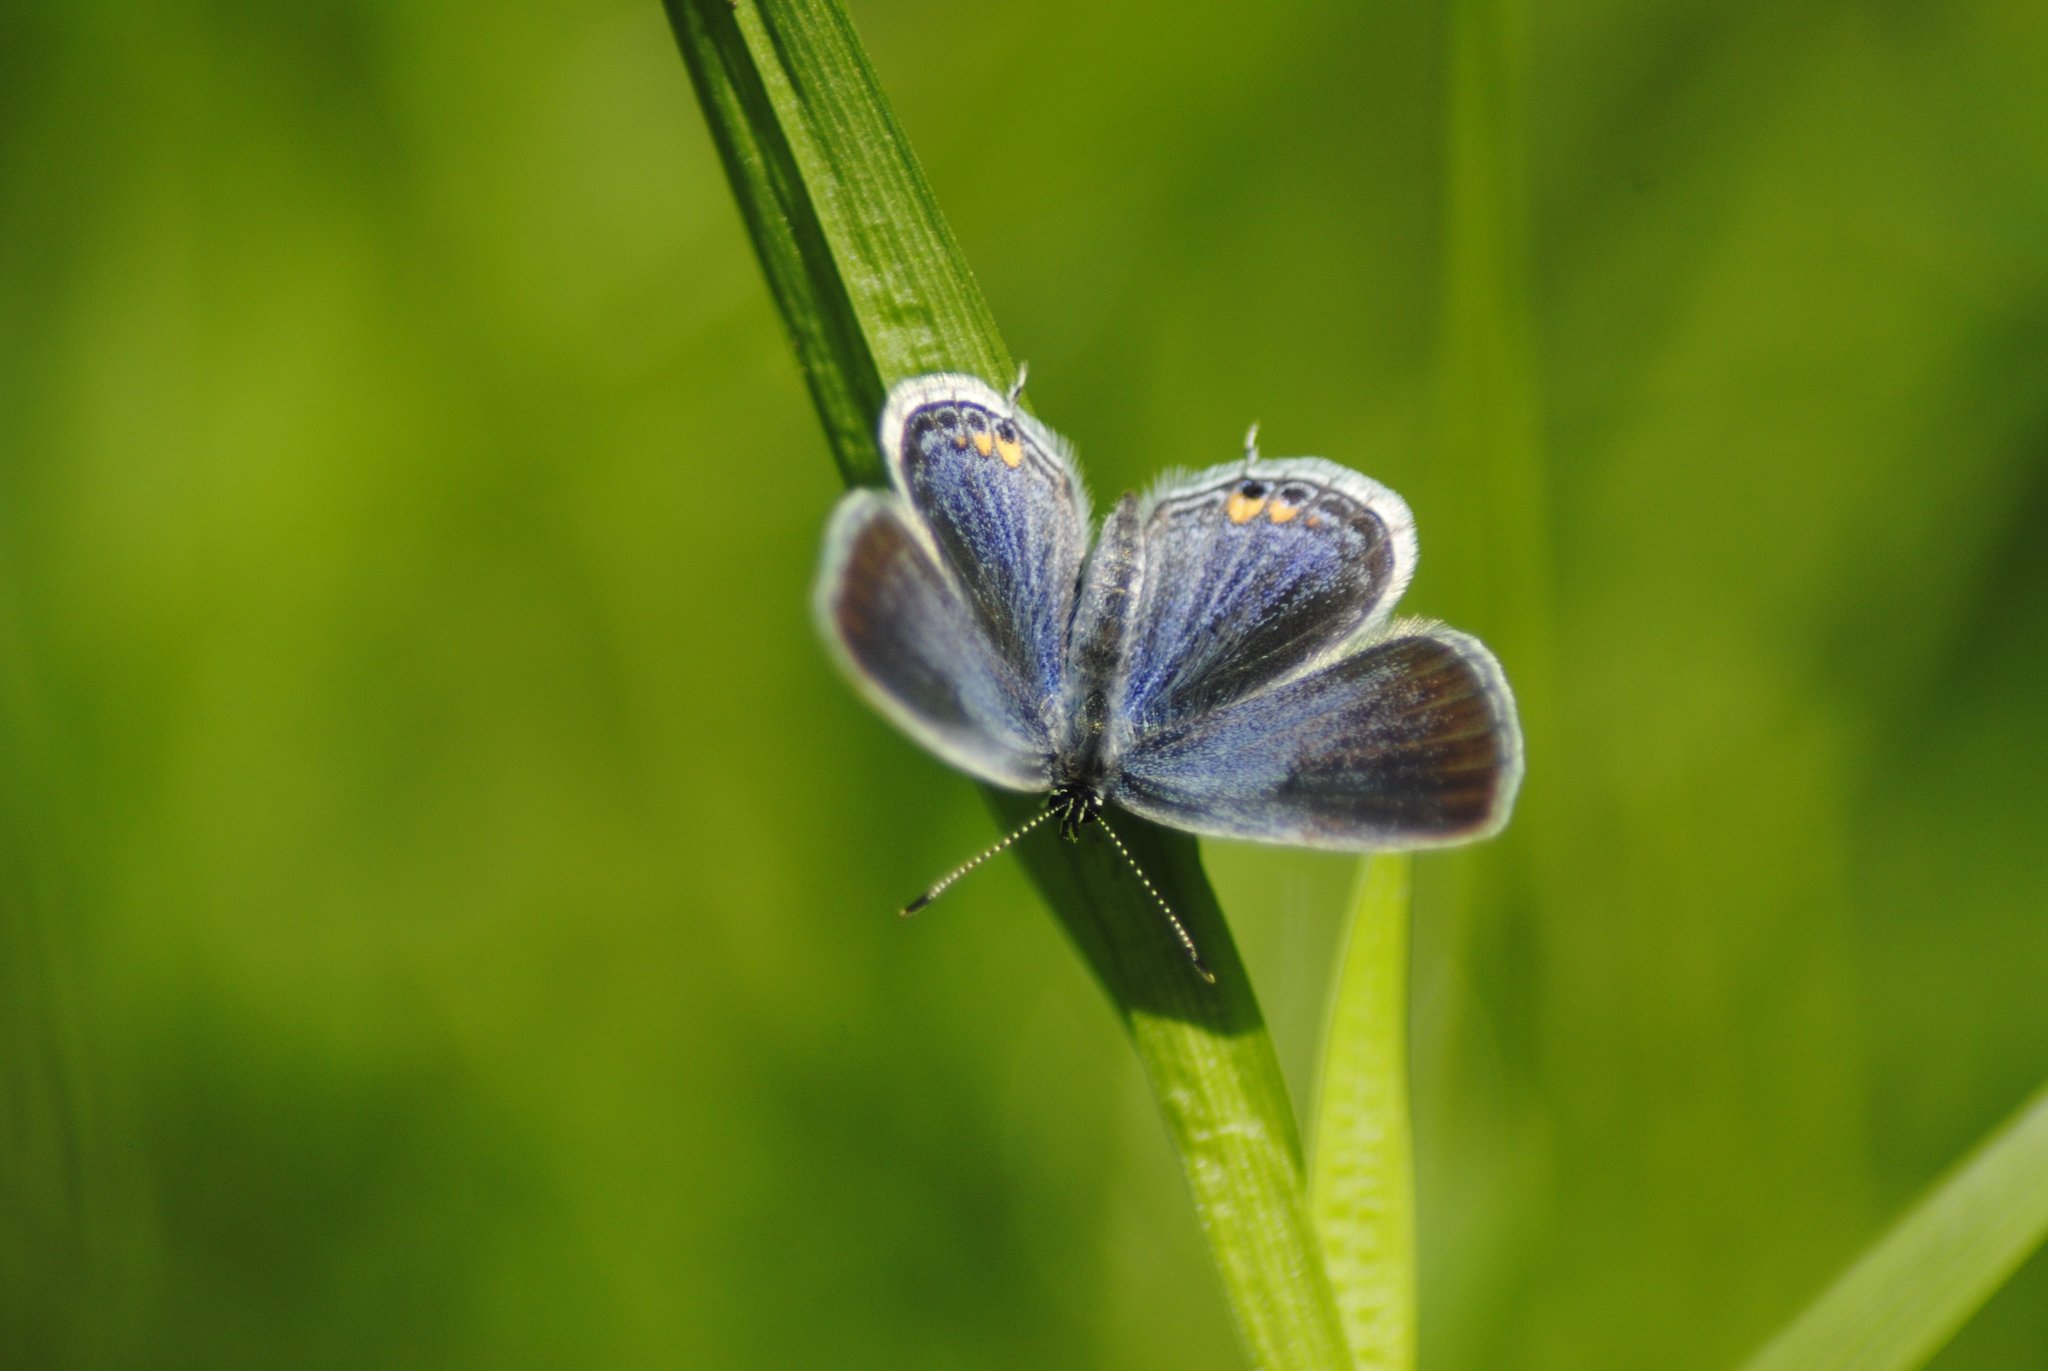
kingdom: Animalia
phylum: Arthropoda
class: Insecta
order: Lepidoptera
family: Lycaenidae
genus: Elkalyce
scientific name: Elkalyce comyntas
